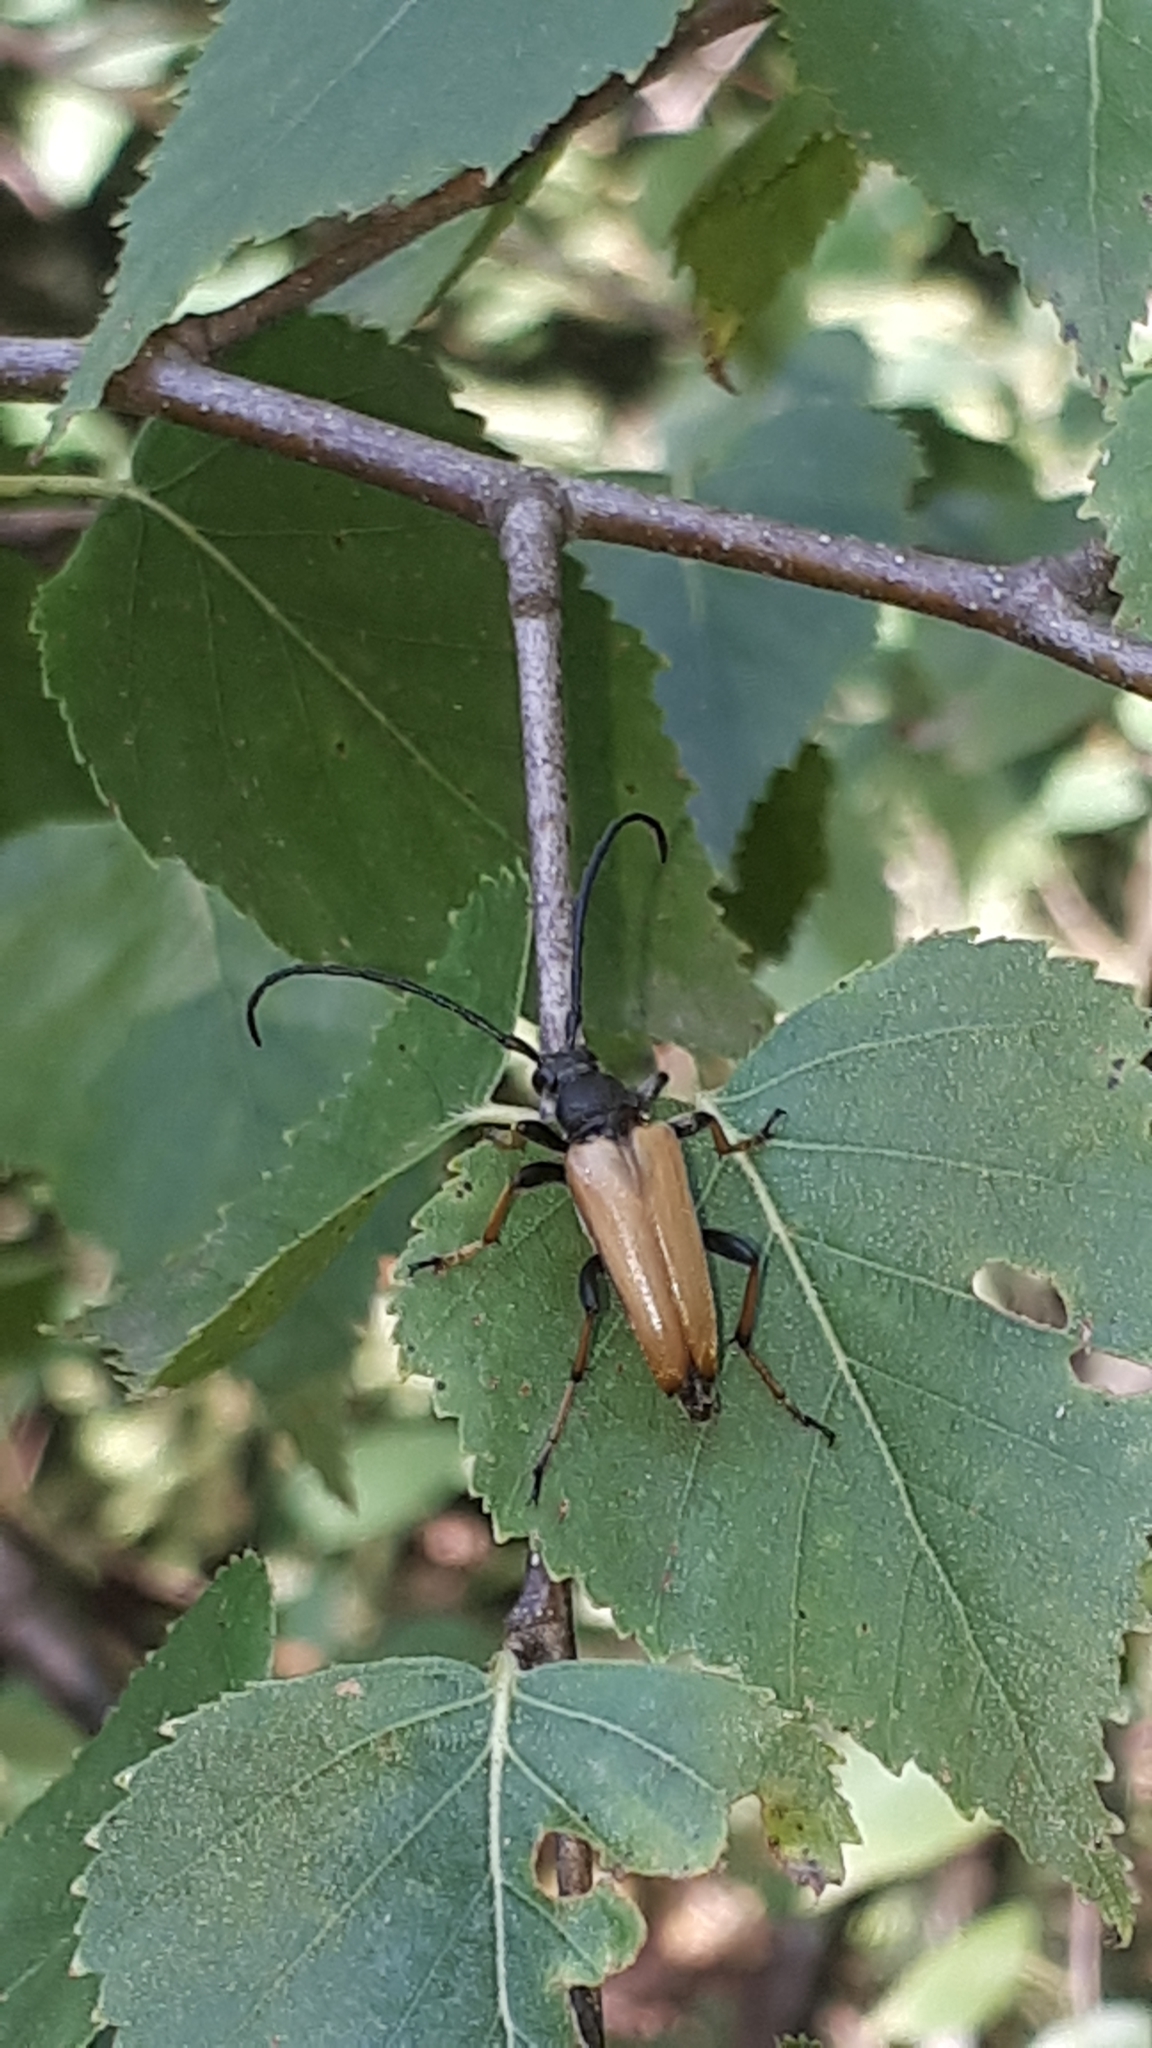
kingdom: Animalia
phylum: Arthropoda
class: Insecta
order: Coleoptera
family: Cerambycidae
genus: Stictoleptura
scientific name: Stictoleptura rubra
